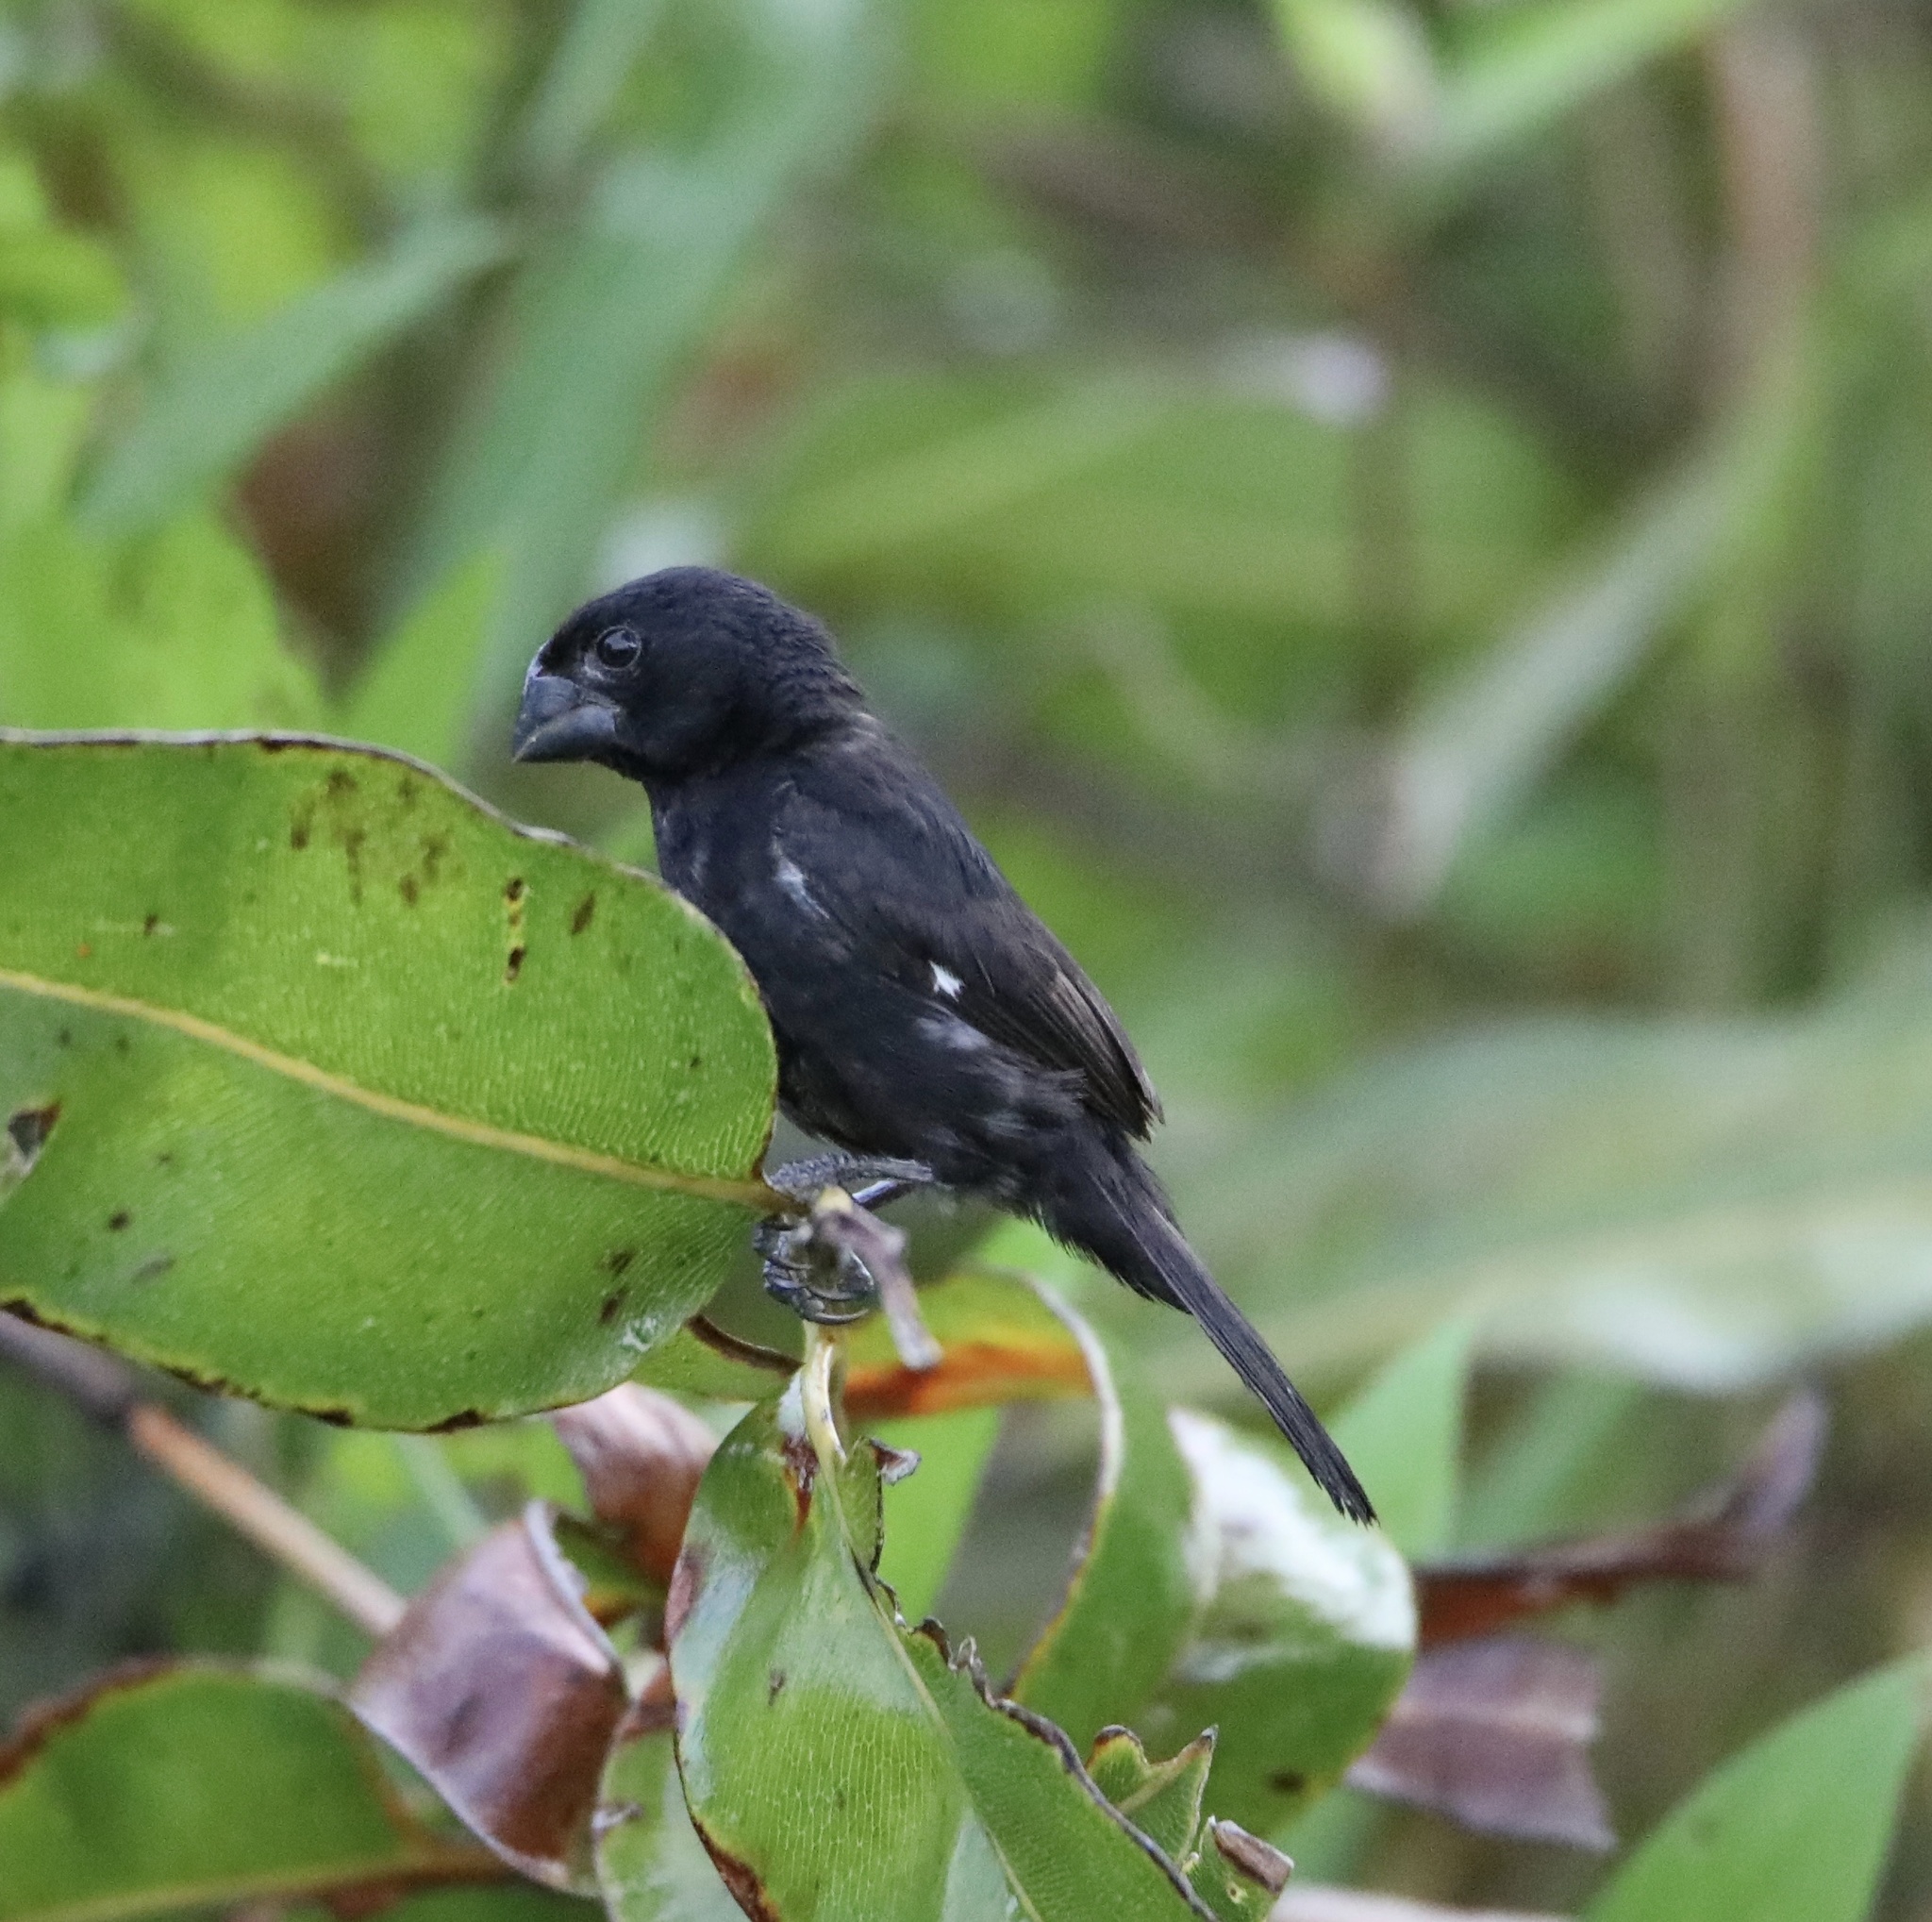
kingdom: Animalia
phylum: Chordata
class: Aves
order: Passeriformes
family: Thraupidae
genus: Sporophila
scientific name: Sporophila funerea
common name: Thick-billed seed-finch
